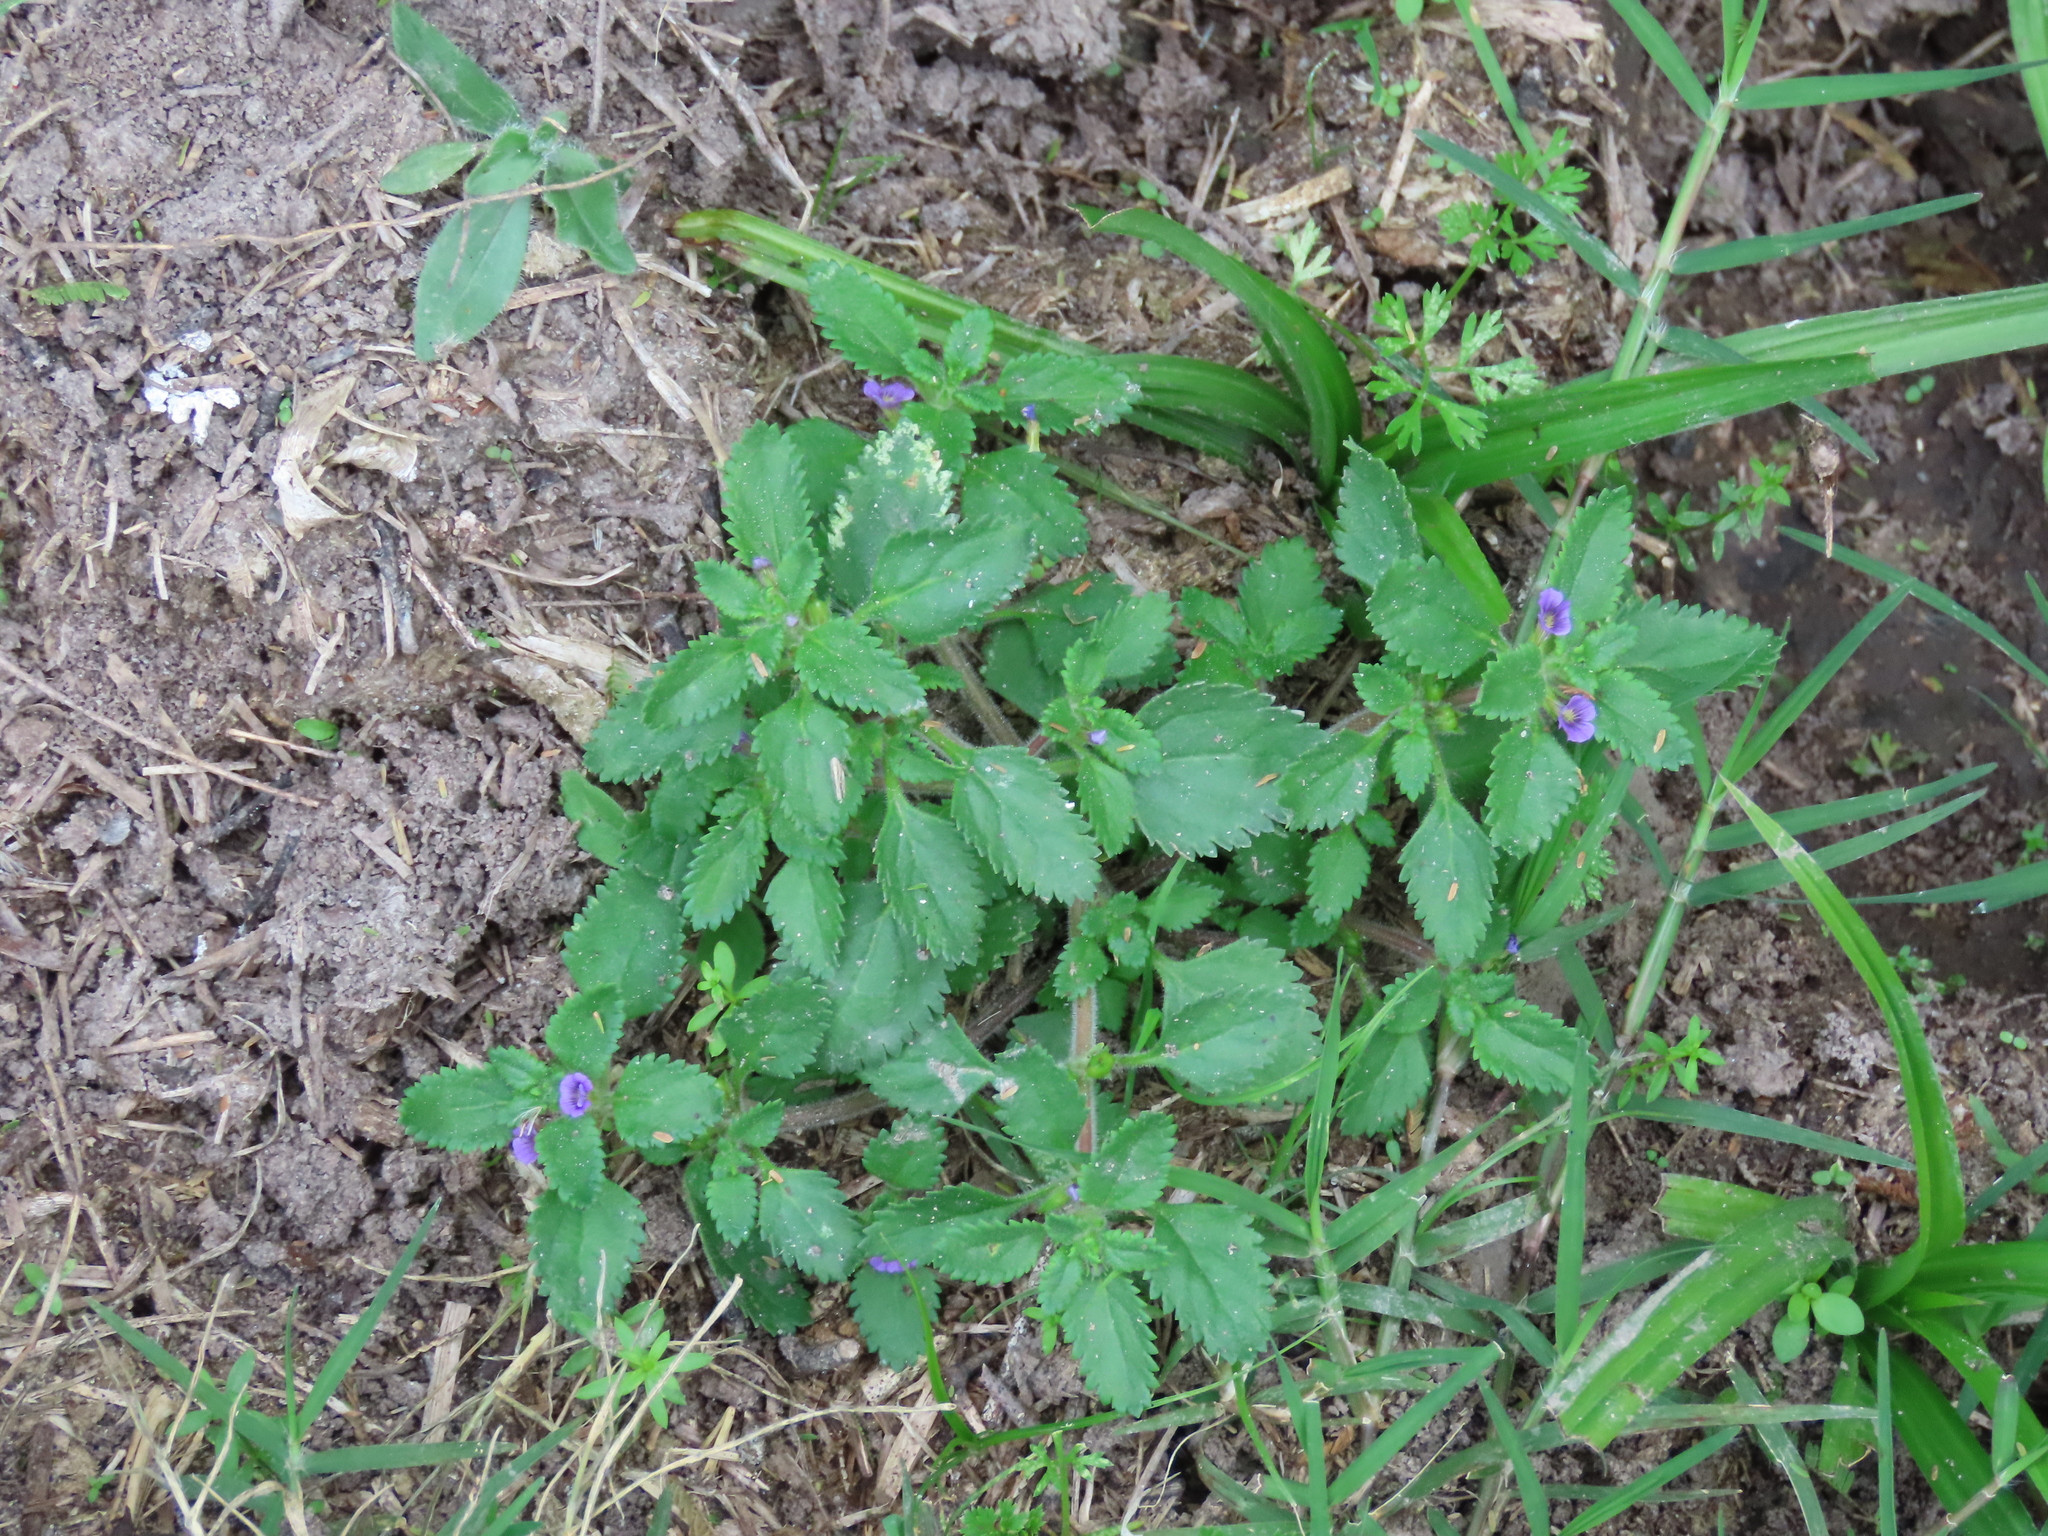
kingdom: Plantae
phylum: Tracheophyta
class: Magnoliopsida
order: Lamiales
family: Plantaginaceae
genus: Stemodia
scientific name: Stemodia verticillata
